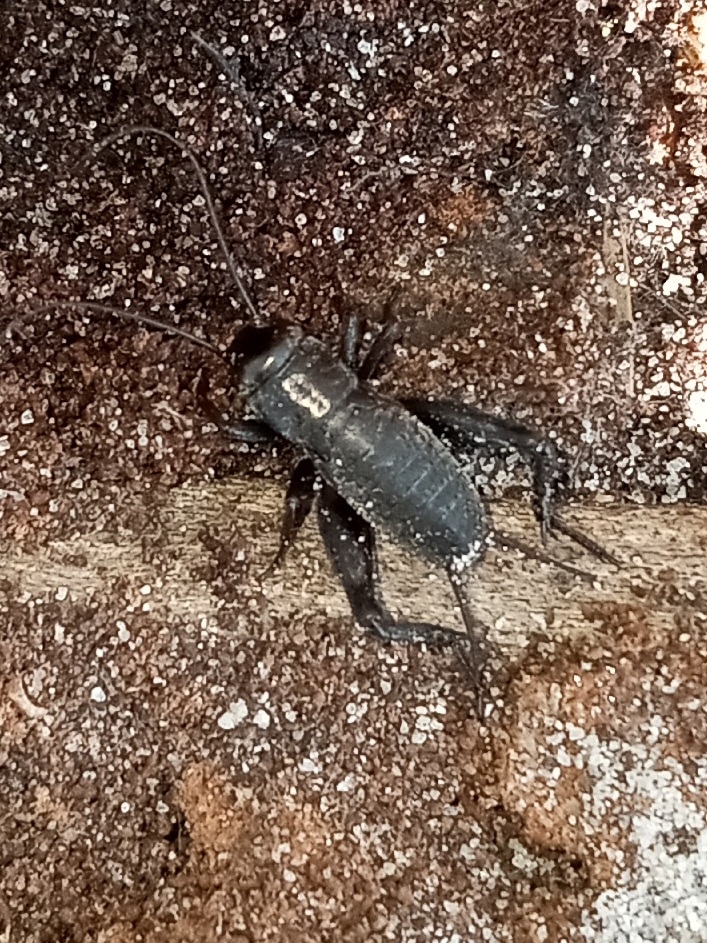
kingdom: Animalia
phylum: Arthropoda
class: Insecta
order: Orthoptera
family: Gryllidae
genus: Gryllus
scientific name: Gryllus veletis
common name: Spring field cricket
